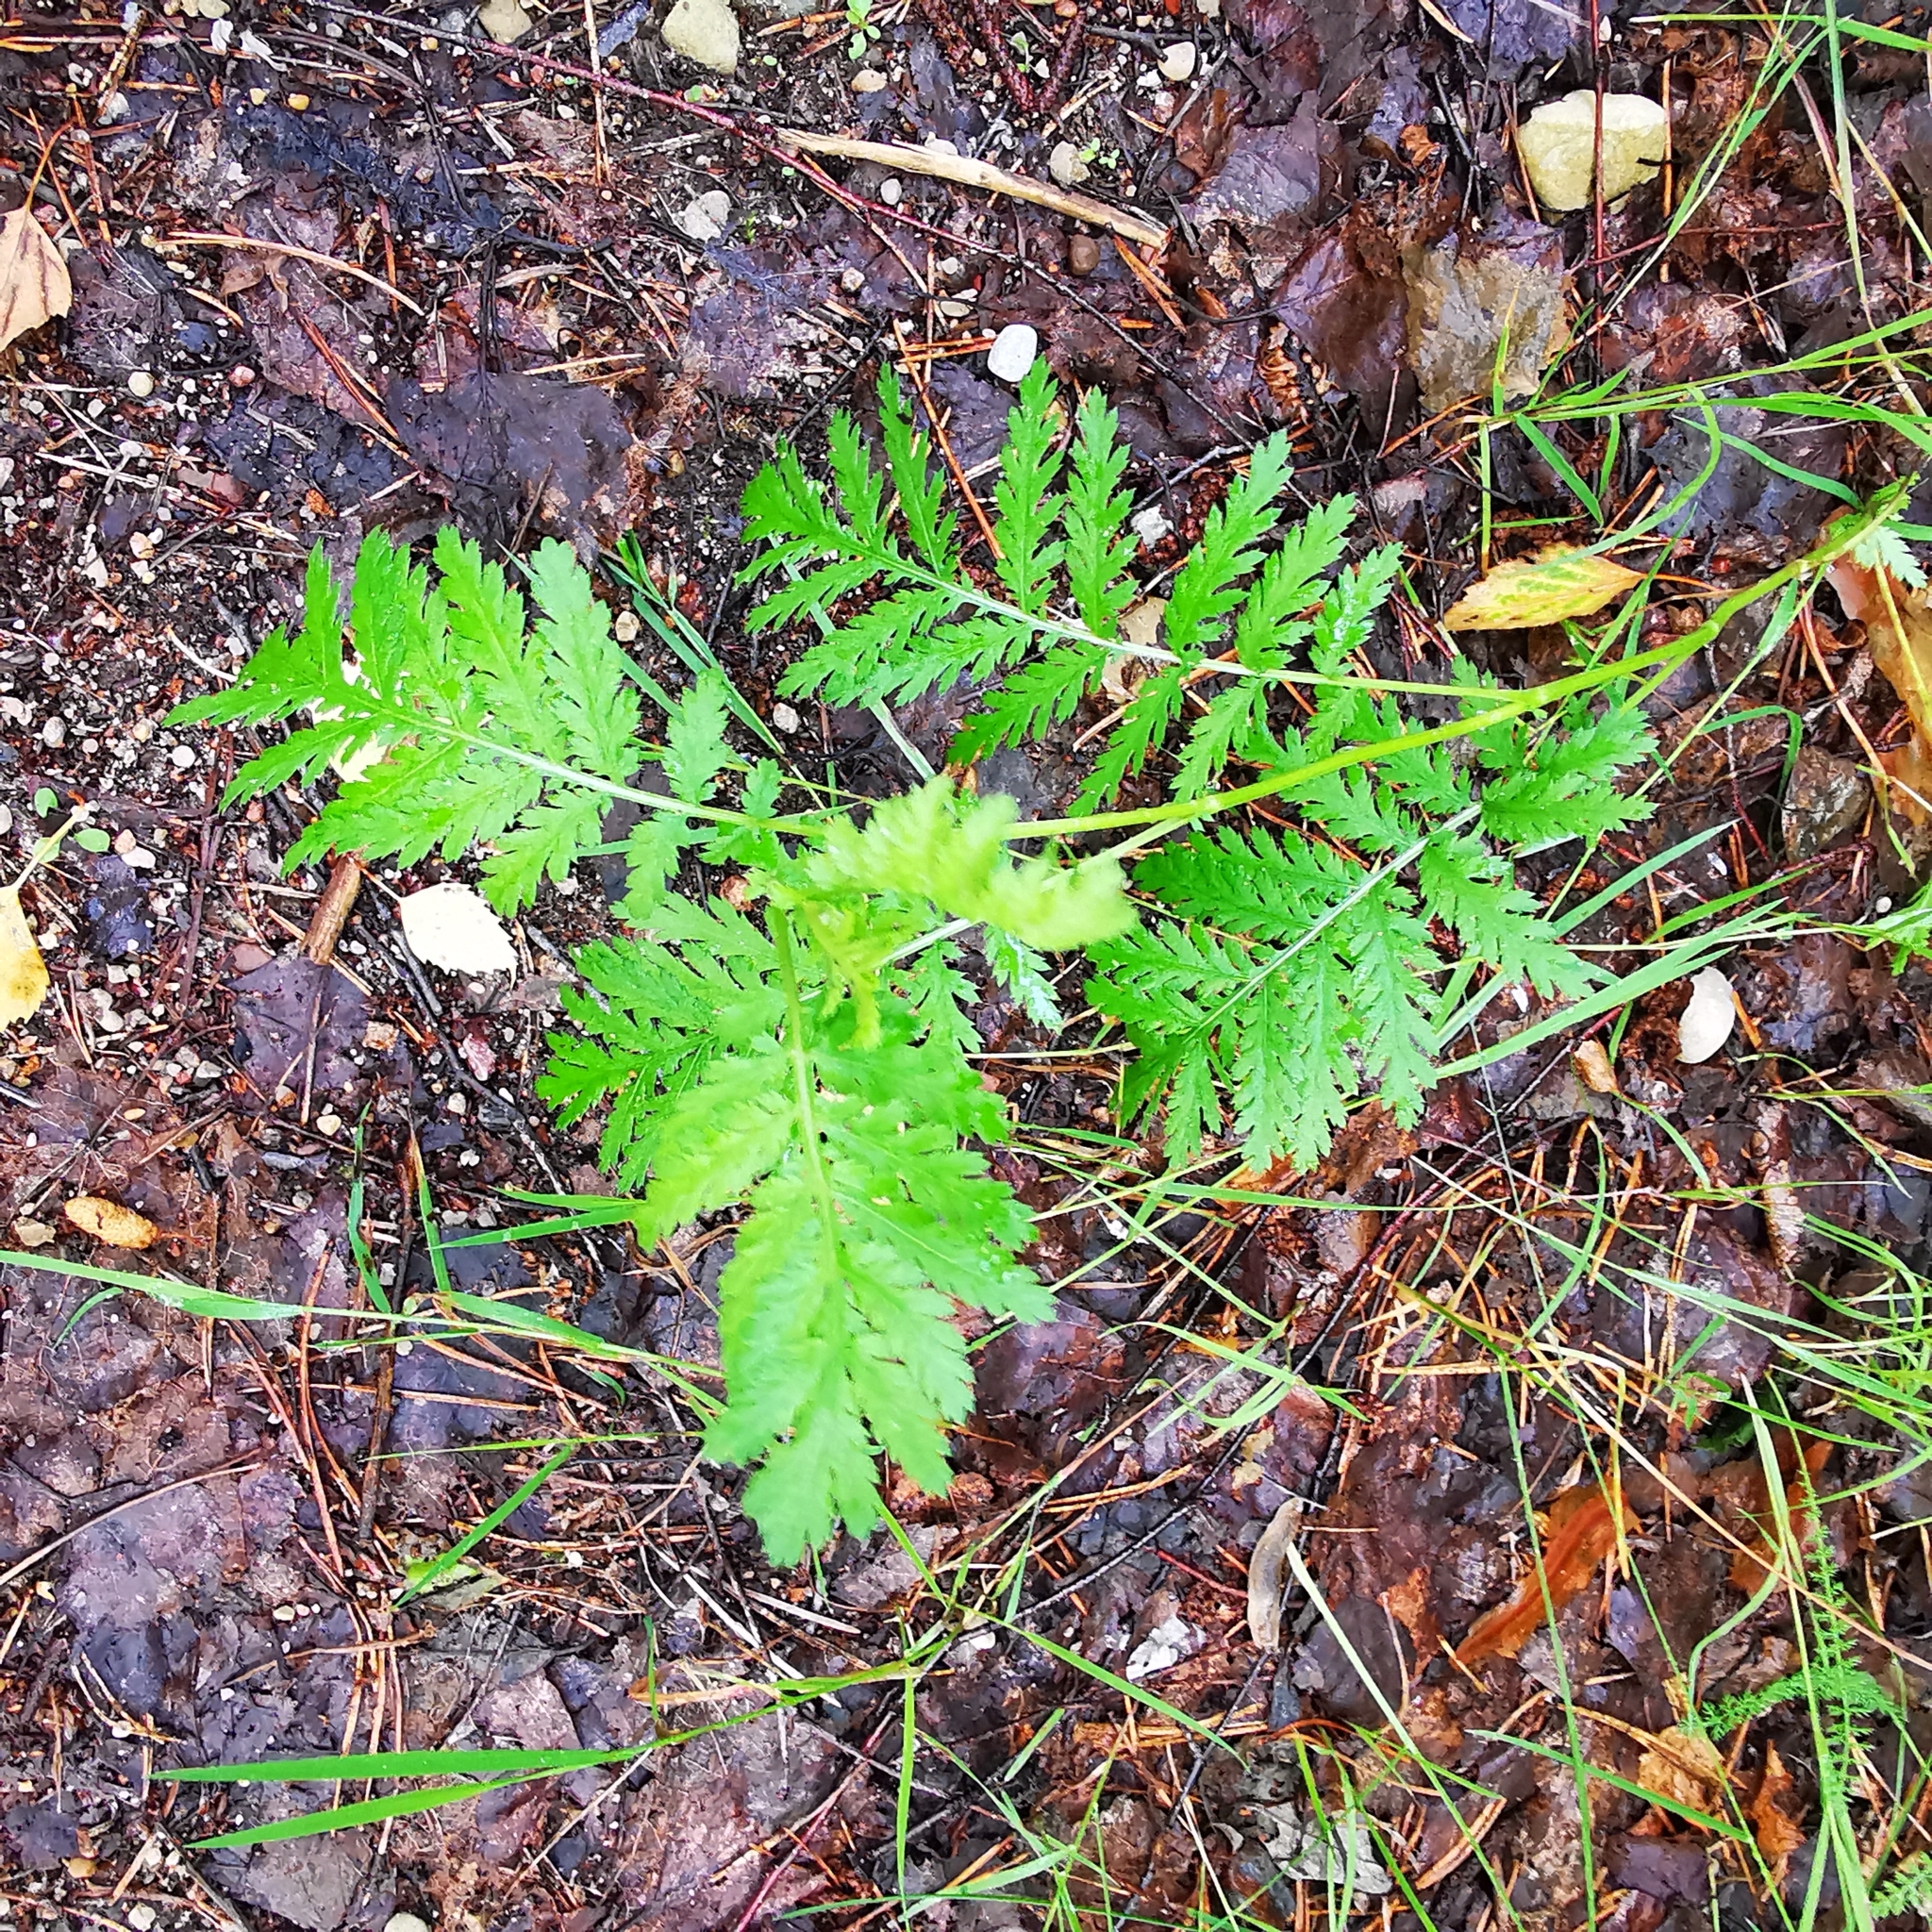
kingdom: Plantae
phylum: Tracheophyta
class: Magnoliopsida
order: Asterales
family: Asteraceae
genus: Tanacetum
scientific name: Tanacetum vulgare
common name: Common tansy
